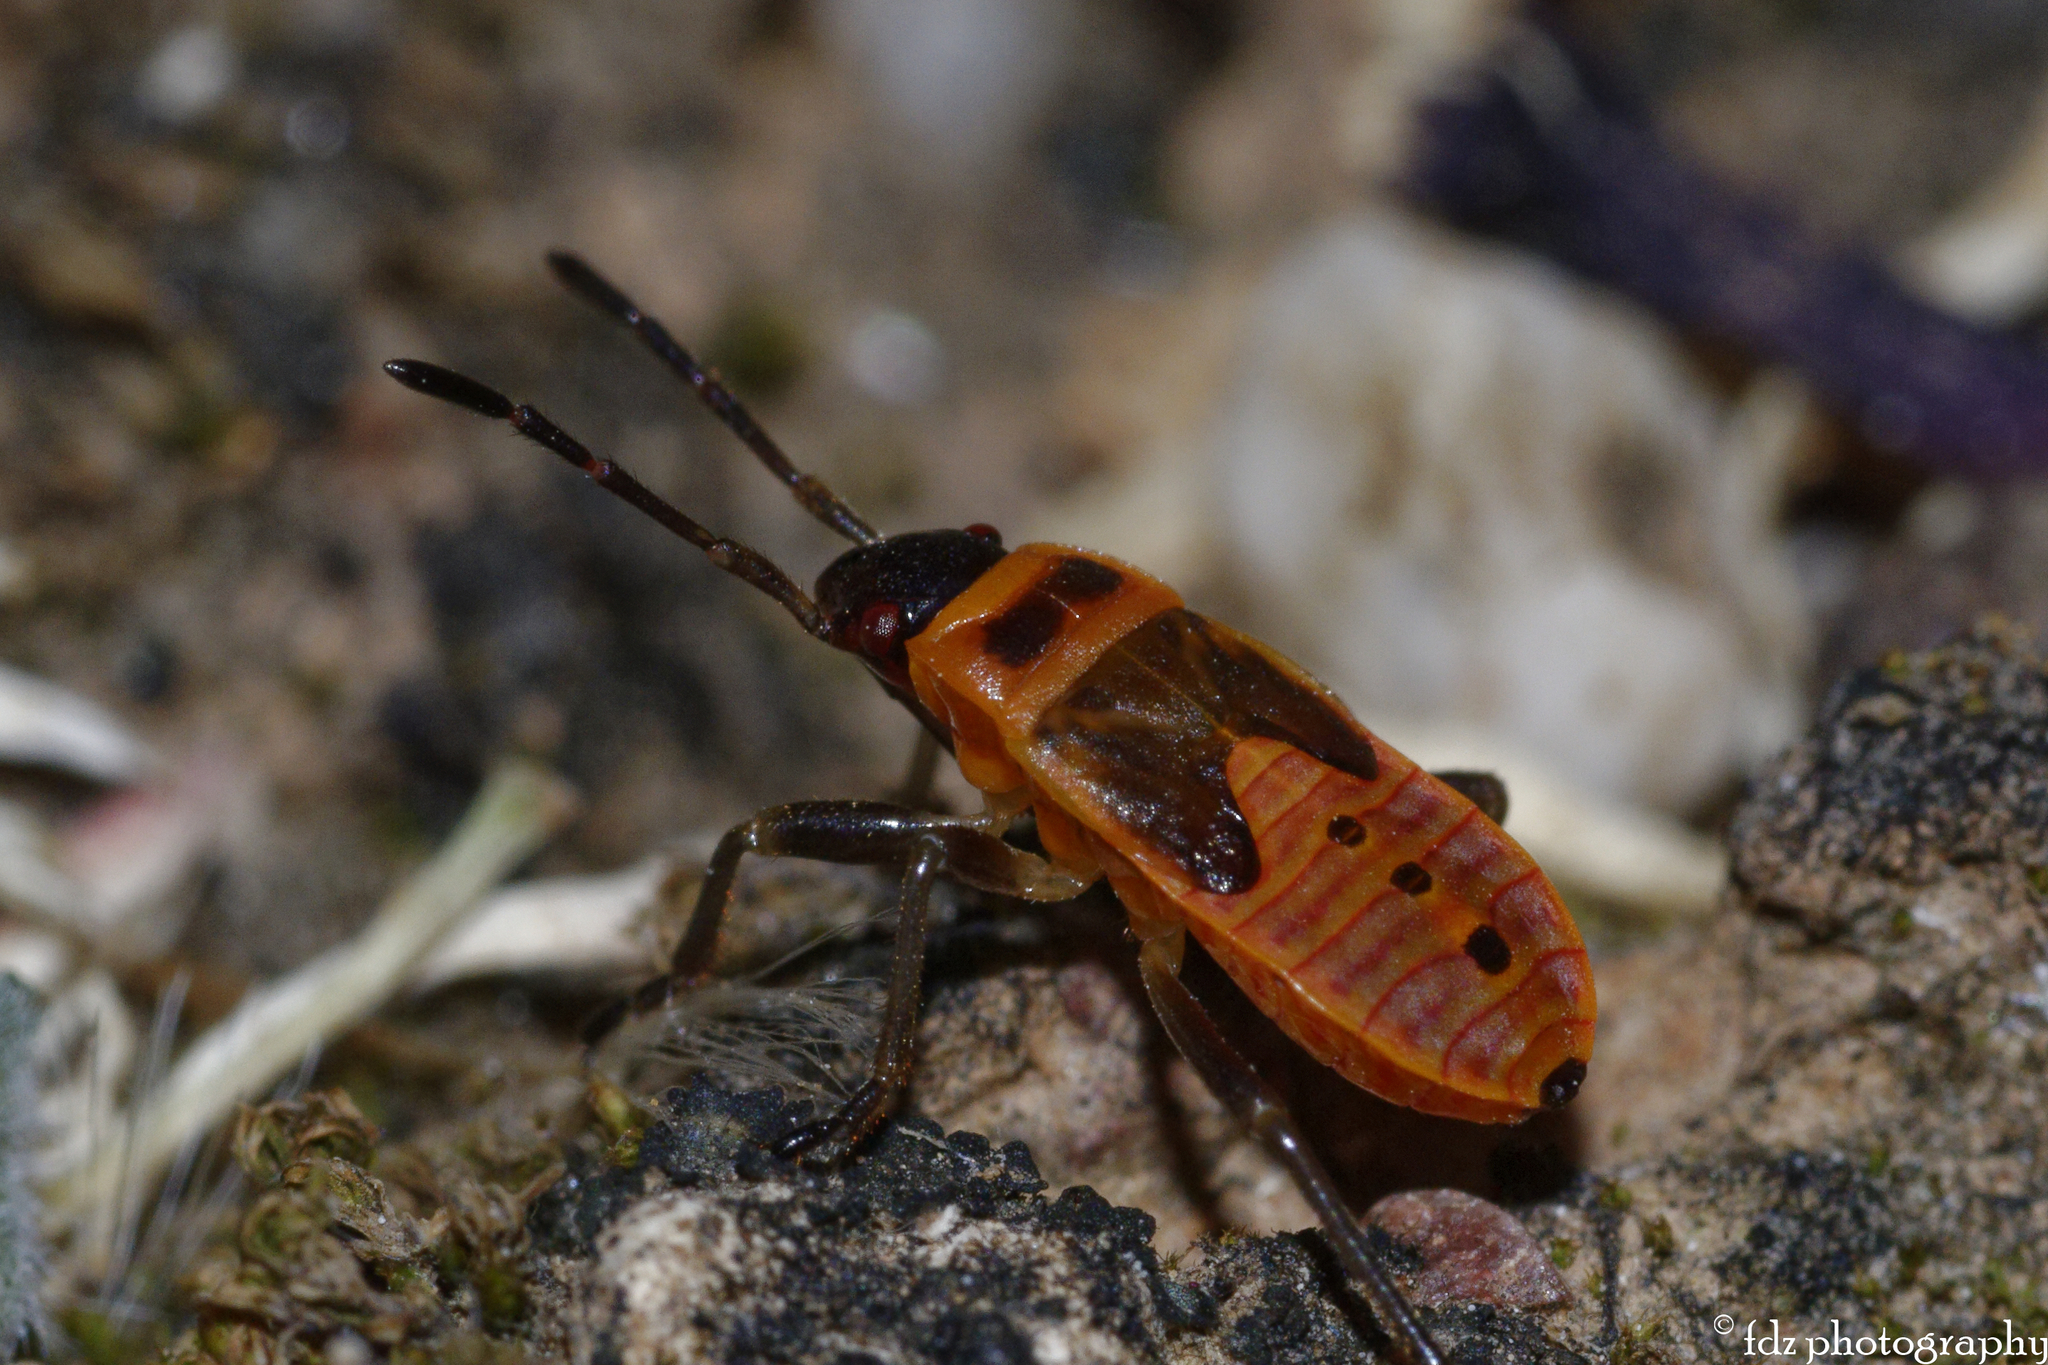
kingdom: Animalia
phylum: Arthropoda
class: Insecta
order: Hemiptera
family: Pyrrhocoridae
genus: Pyrrhocoris
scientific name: Pyrrhocoris apterus
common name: Firebug
